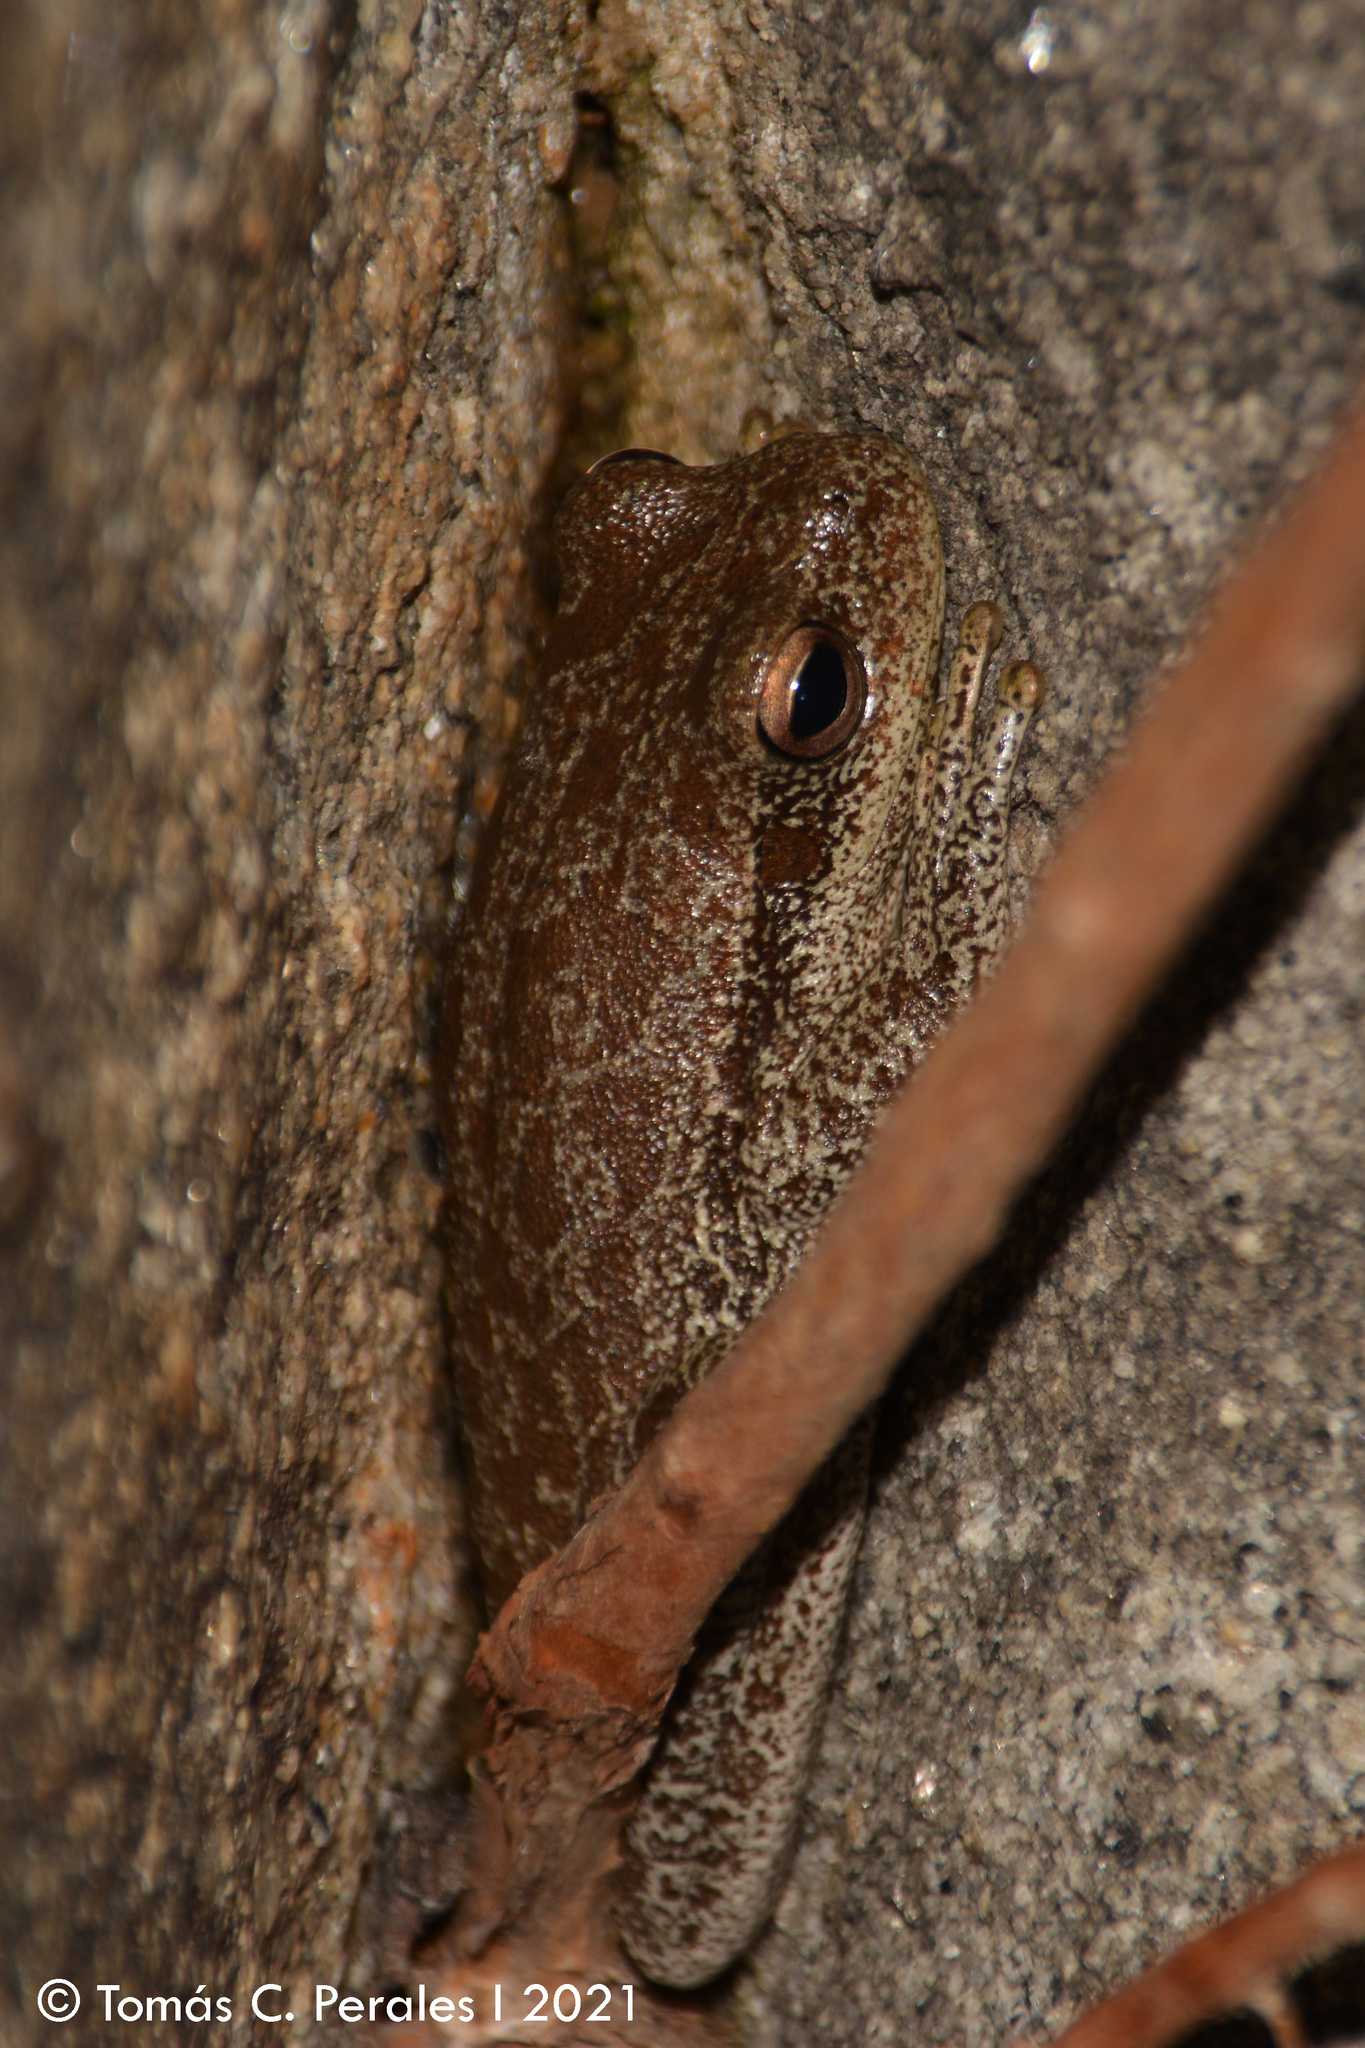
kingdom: Animalia
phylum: Chordata
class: Amphibia
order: Anura
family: Hylidae
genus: Boana
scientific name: Boana cordobae
